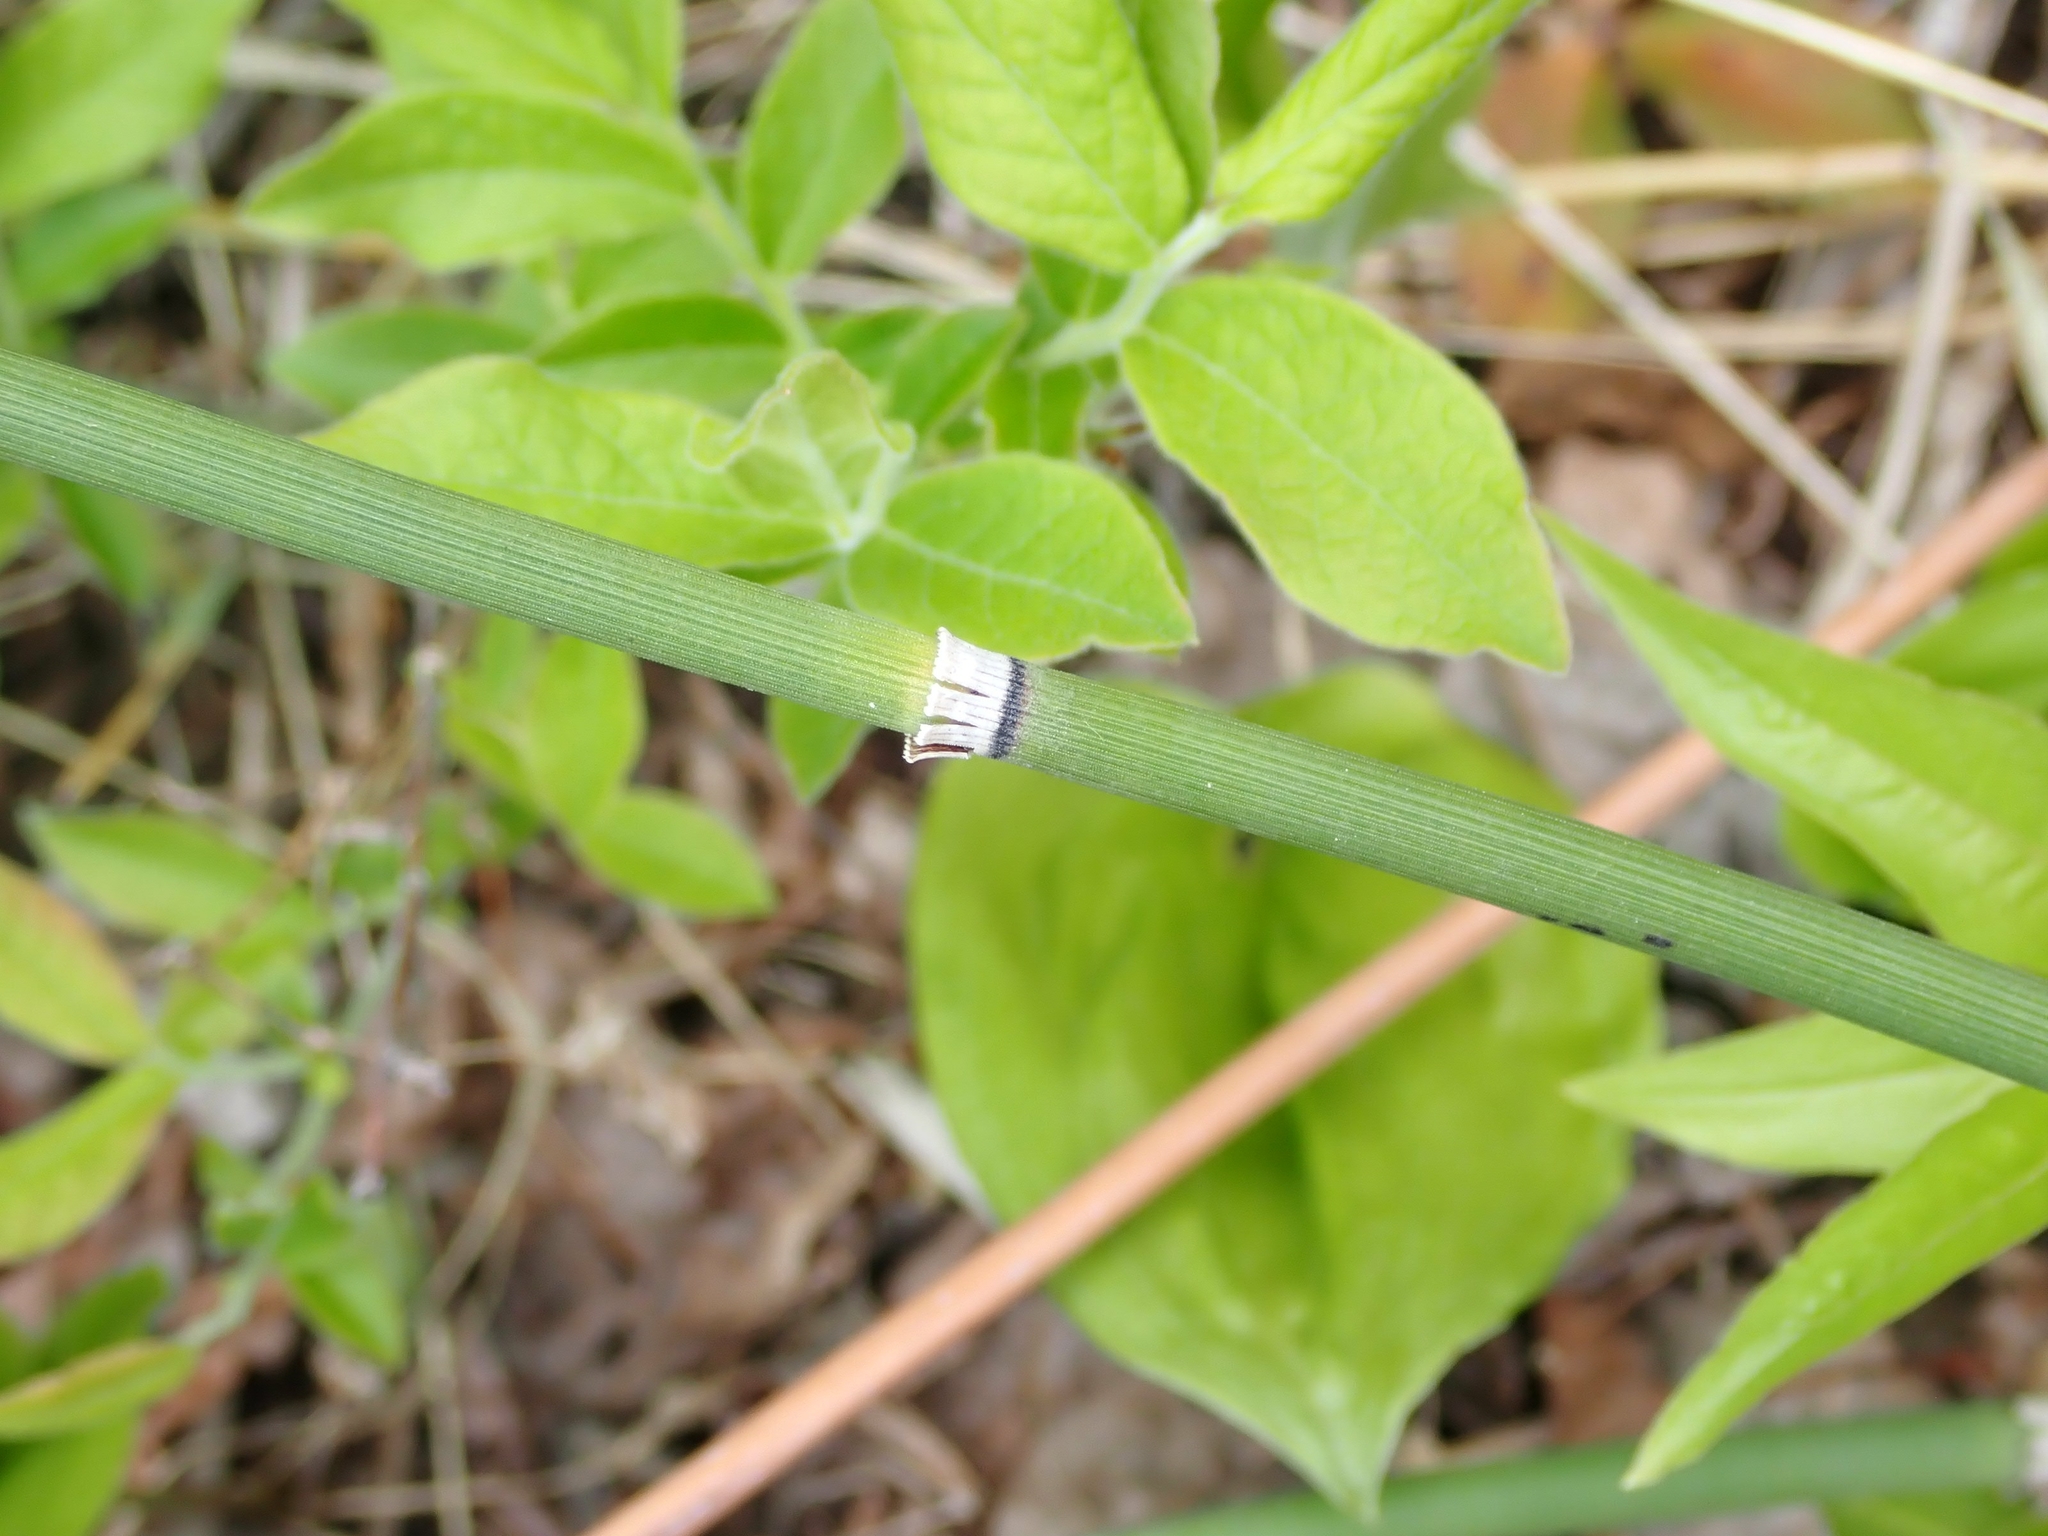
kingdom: Plantae
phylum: Tracheophyta
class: Polypodiopsida
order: Equisetales
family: Equisetaceae
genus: Equisetum
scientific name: Equisetum praealtum
